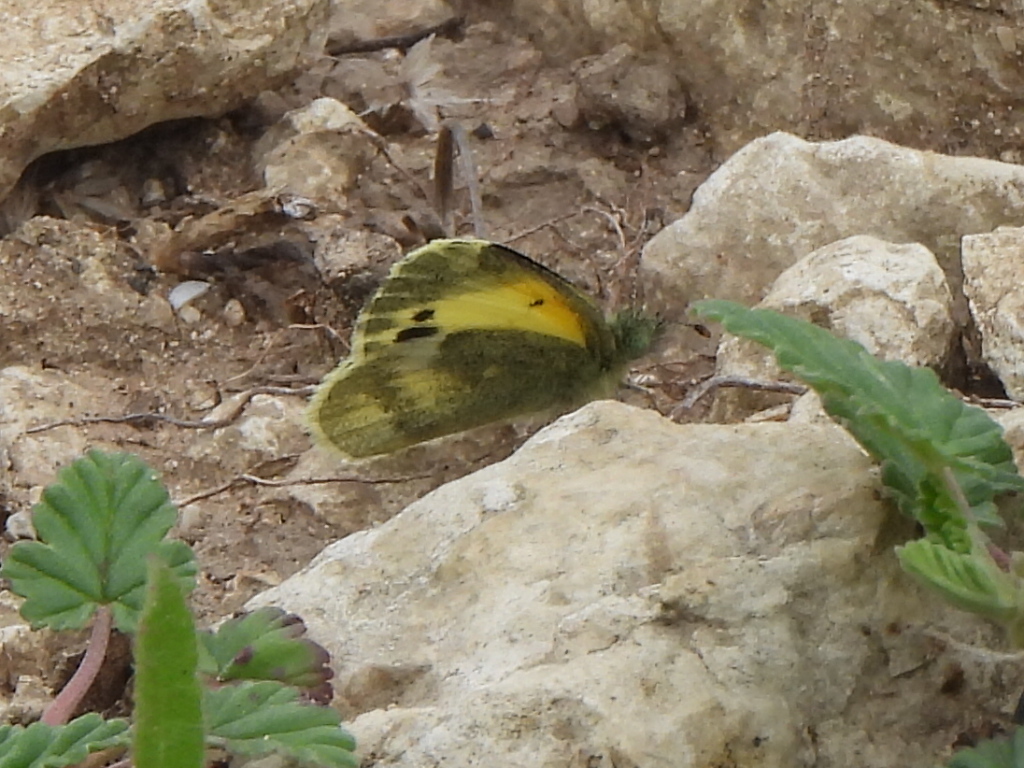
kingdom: Animalia
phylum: Arthropoda
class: Insecta
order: Lepidoptera
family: Pieridae
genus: Nathalis
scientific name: Nathalis iole
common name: Dainty sulphur
